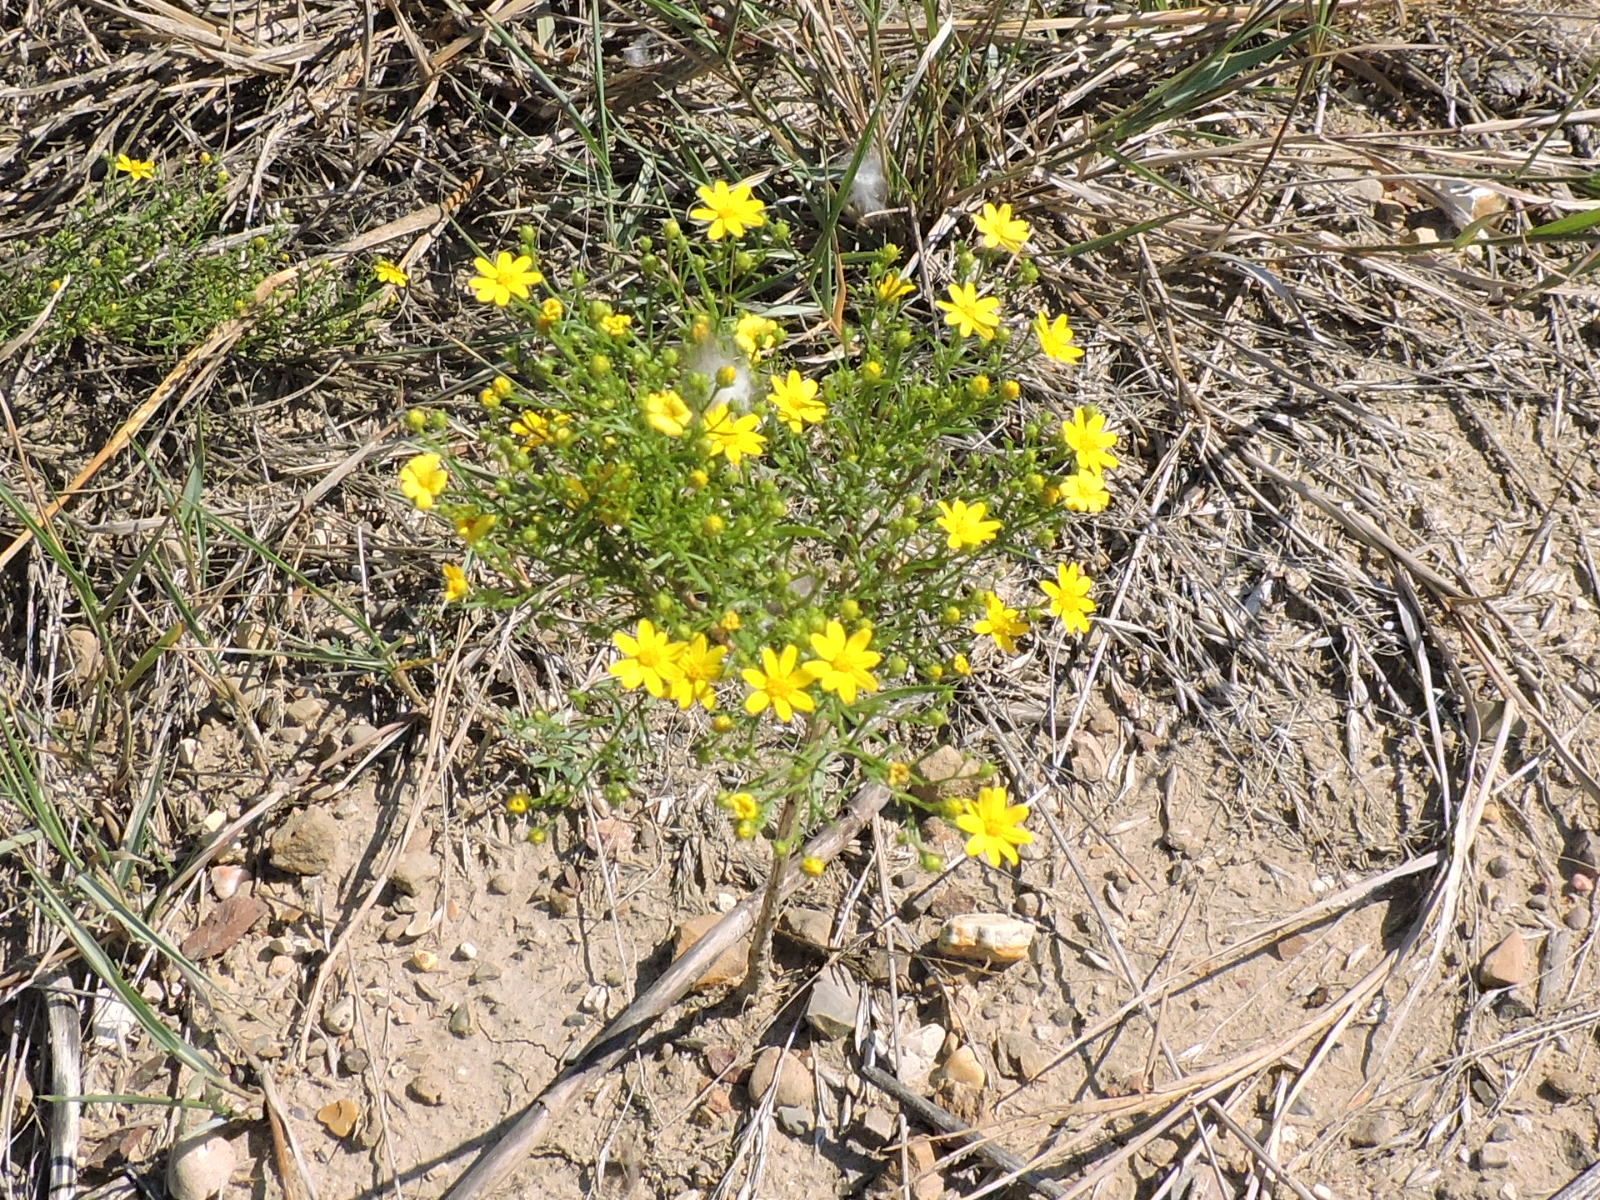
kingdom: Plantae
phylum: Tracheophyta
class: Magnoliopsida
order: Asterales
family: Asteraceae
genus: Amphiachyris
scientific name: Amphiachyris dracunculoides
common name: Broomweed
